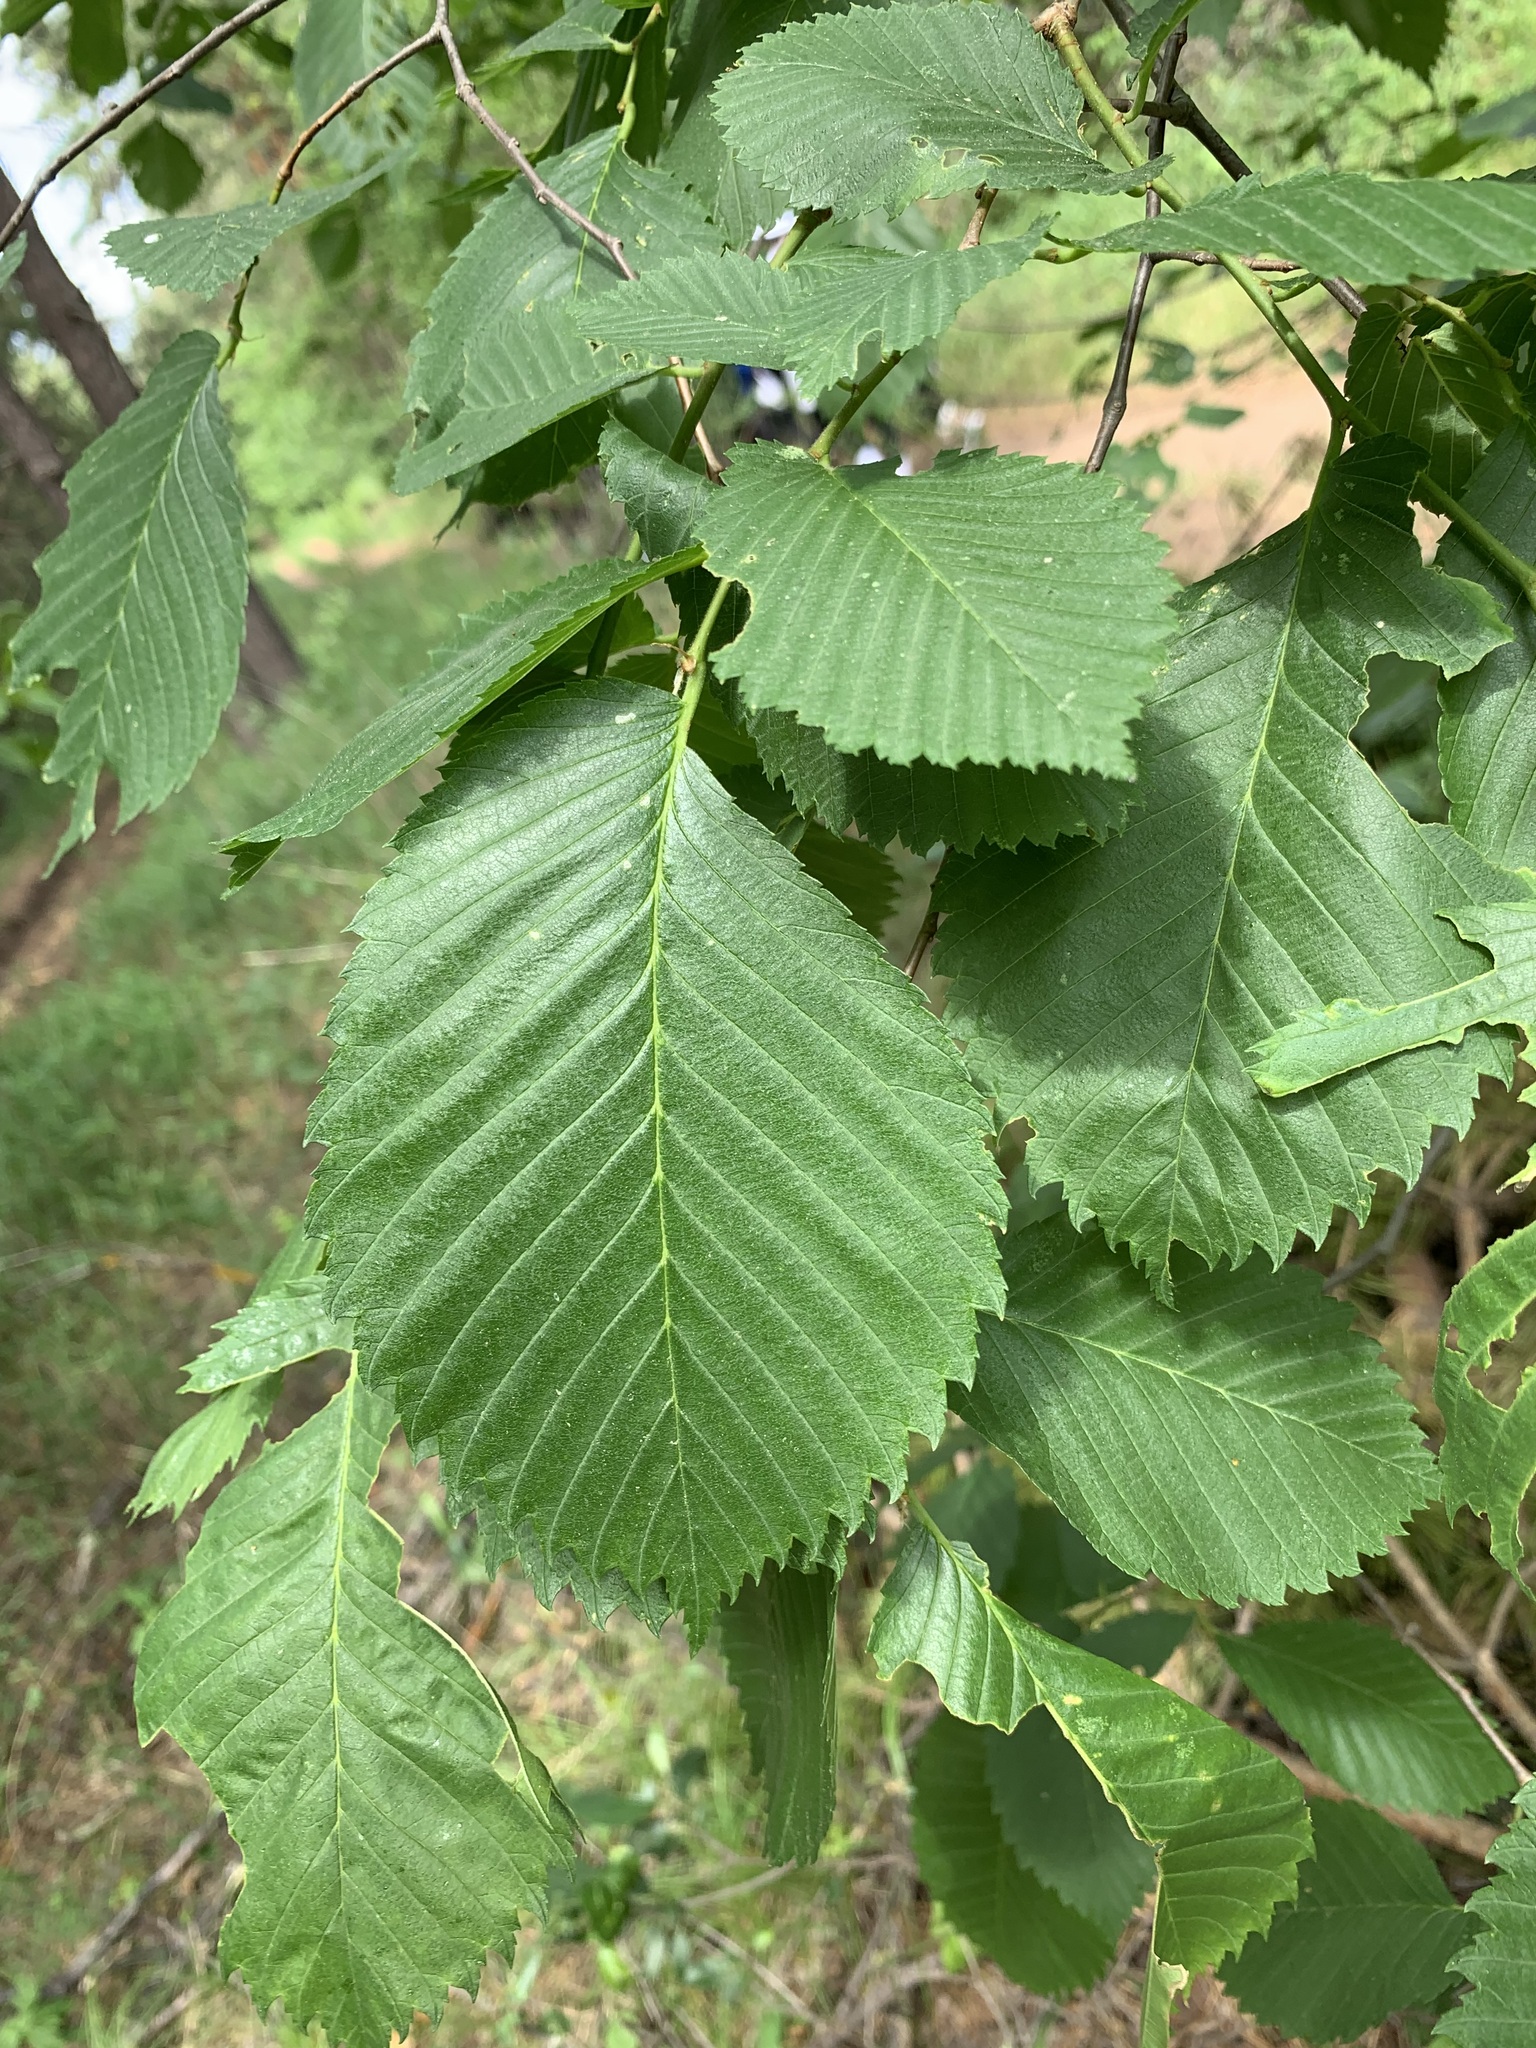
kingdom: Plantae
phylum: Tracheophyta
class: Magnoliopsida
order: Rosales
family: Ulmaceae
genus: Ulmus
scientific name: Ulmus laevis
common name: European white-elm
